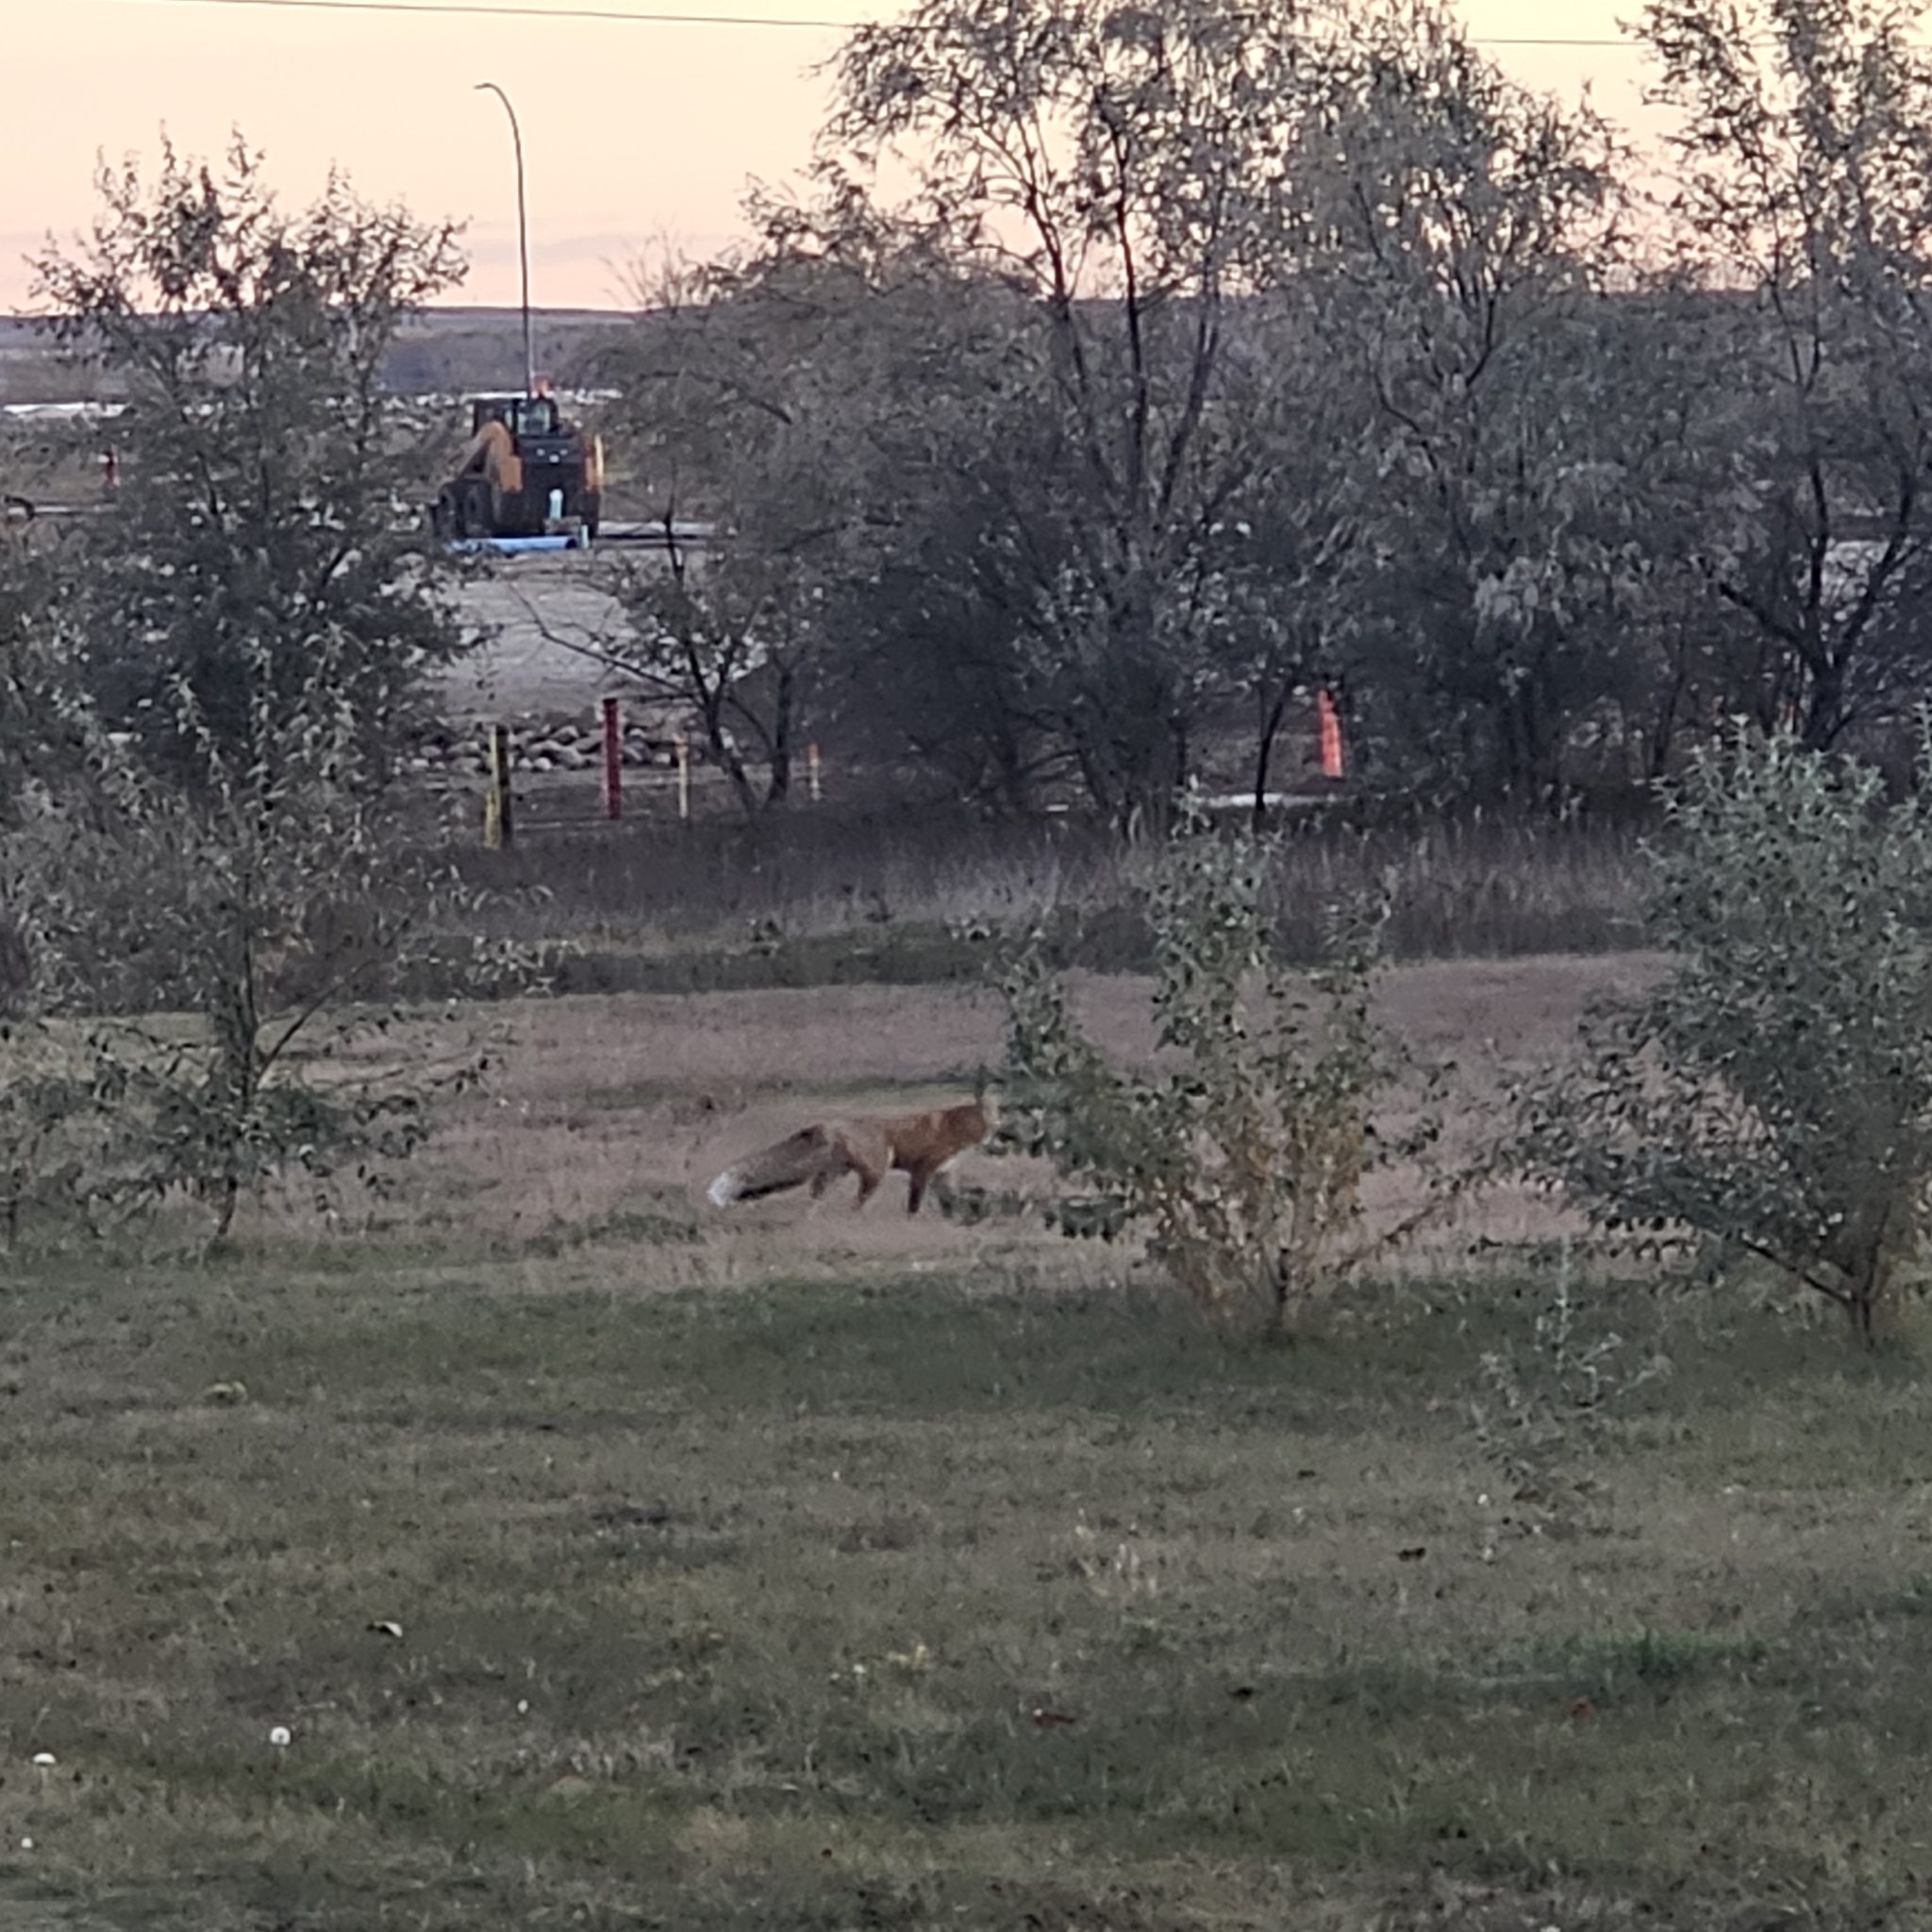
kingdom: Animalia
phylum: Chordata
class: Mammalia
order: Carnivora
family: Canidae
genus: Vulpes
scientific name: Vulpes vulpes
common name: Red fox
